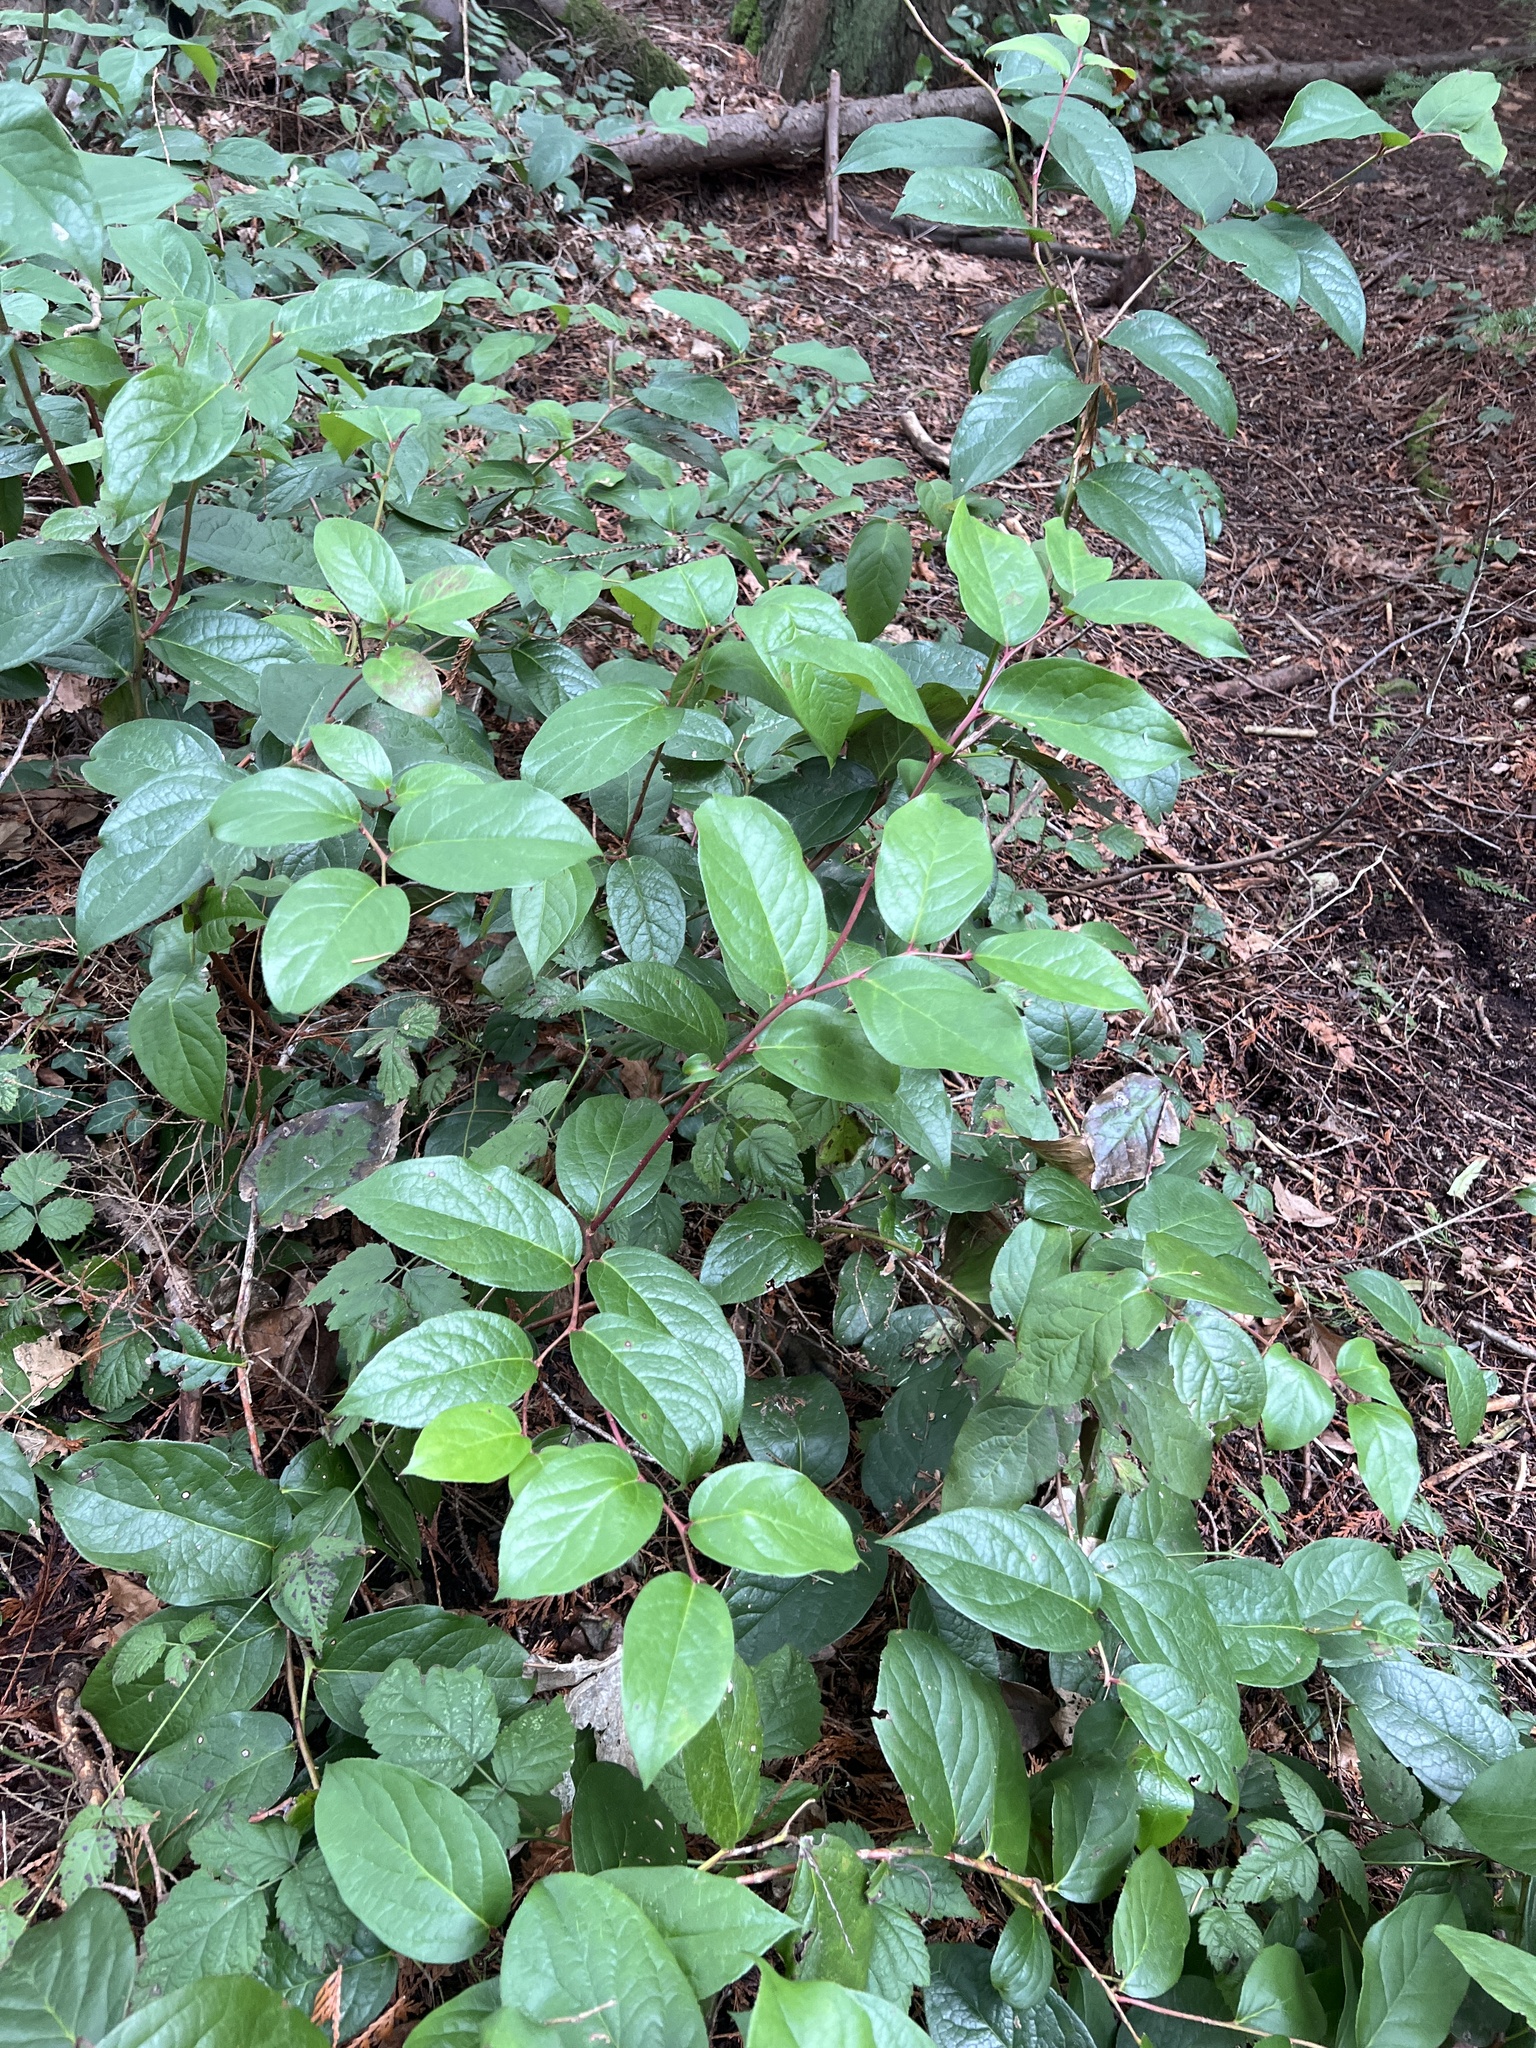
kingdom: Plantae
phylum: Tracheophyta
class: Magnoliopsida
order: Ericales
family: Ericaceae
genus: Gaultheria
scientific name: Gaultheria shallon
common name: Shallon
